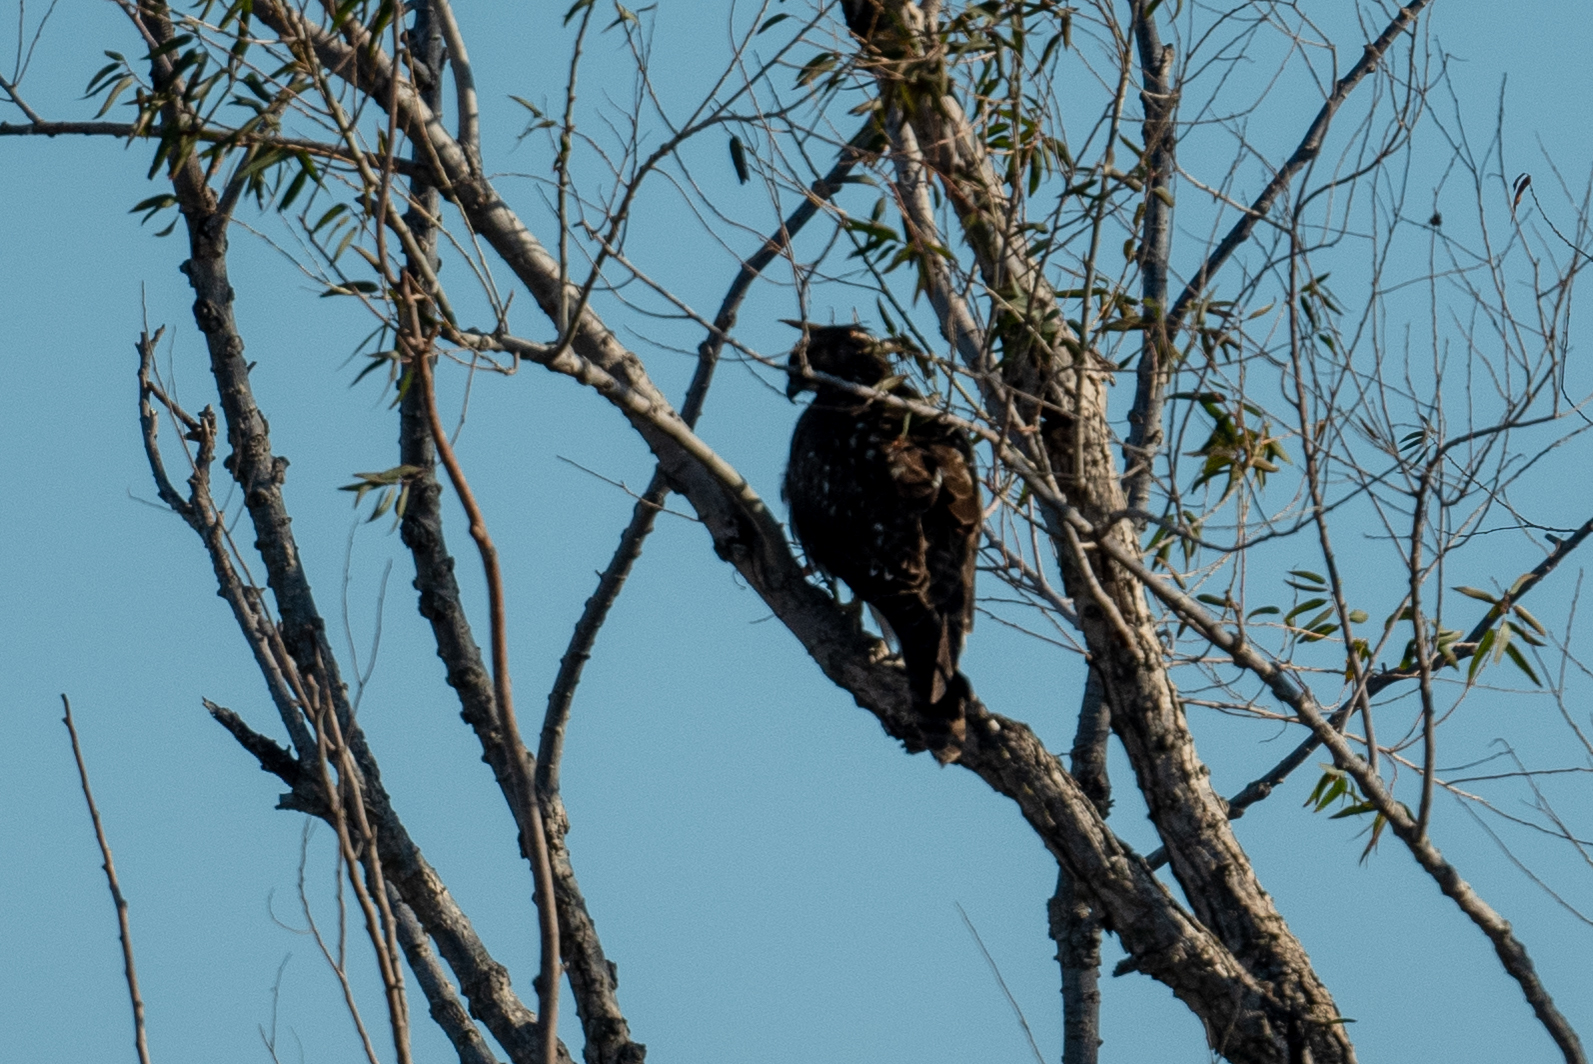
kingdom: Animalia
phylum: Chordata
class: Aves
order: Accipitriformes
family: Accipitridae
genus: Buteo
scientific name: Buteo jamaicensis
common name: Red-tailed hawk
